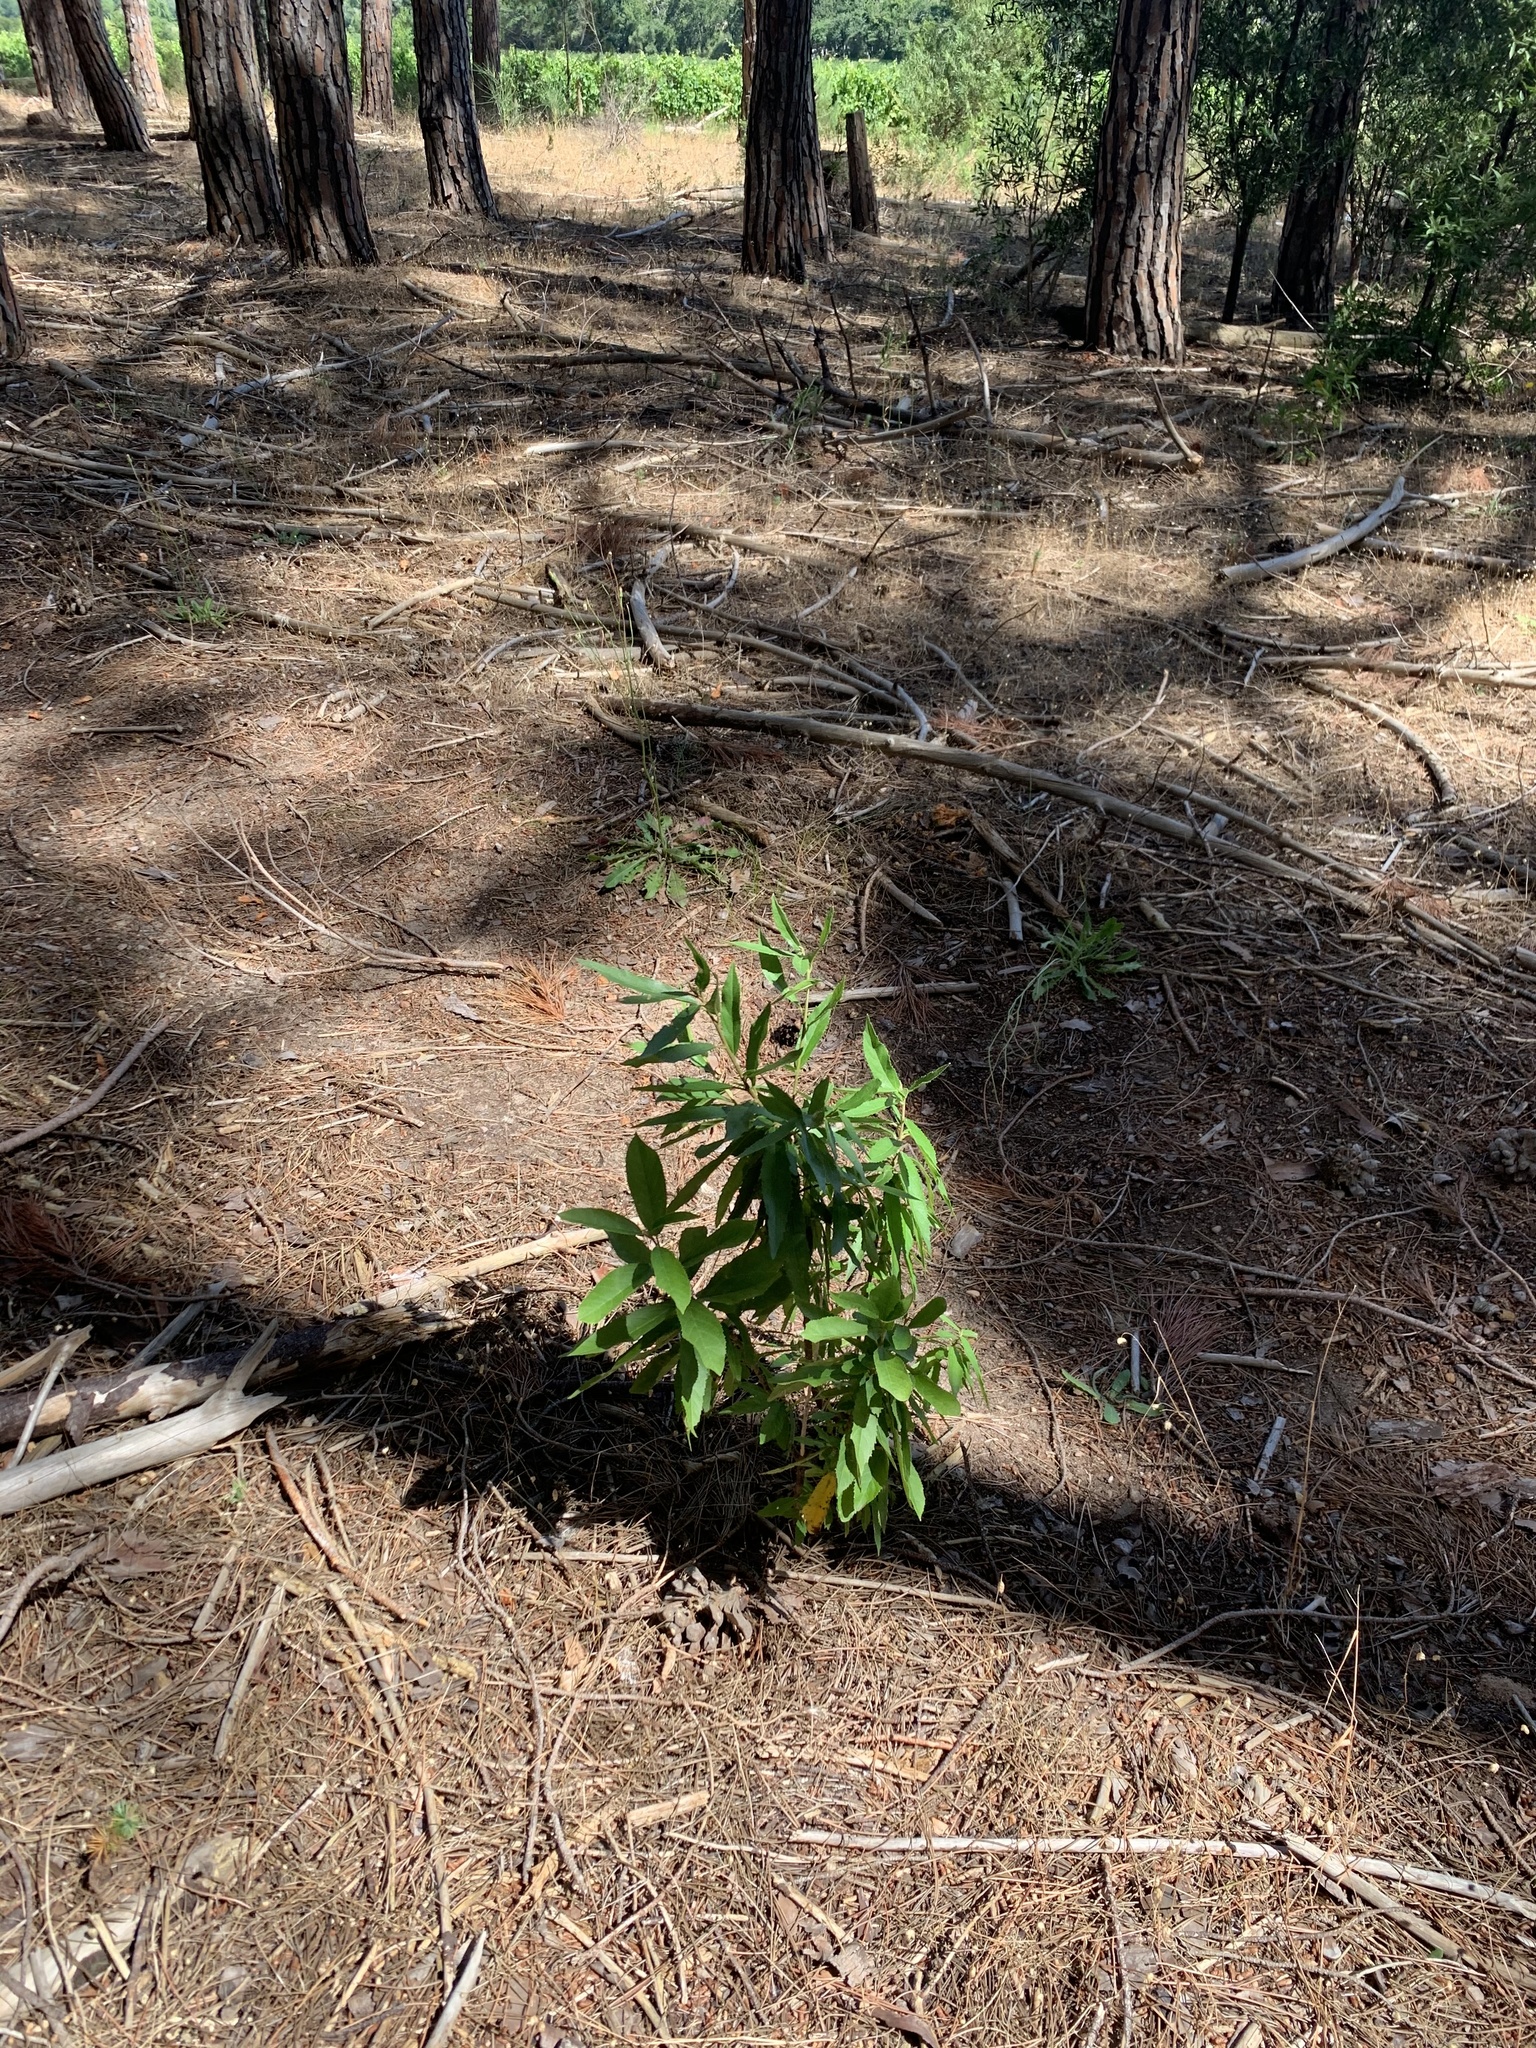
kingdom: Plantae
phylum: Tracheophyta
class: Magnoliopsida
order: Malpighiales
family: Achariaceae
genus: Kiggelaria
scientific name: Kiggelaria africana
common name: Wild peach
